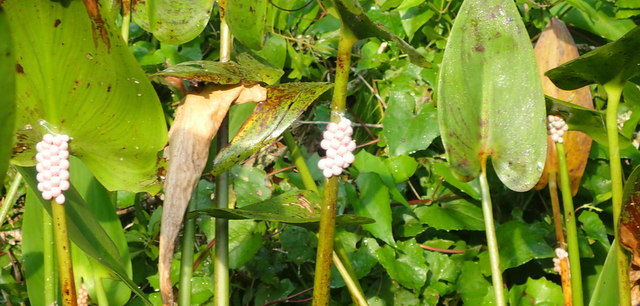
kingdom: Animalia
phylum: Mollusca
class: Gastropoda
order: Architaenioglossa
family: Ampullariidae
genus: Pomacea
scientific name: Pomacea paludosa
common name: Florida applesnail
